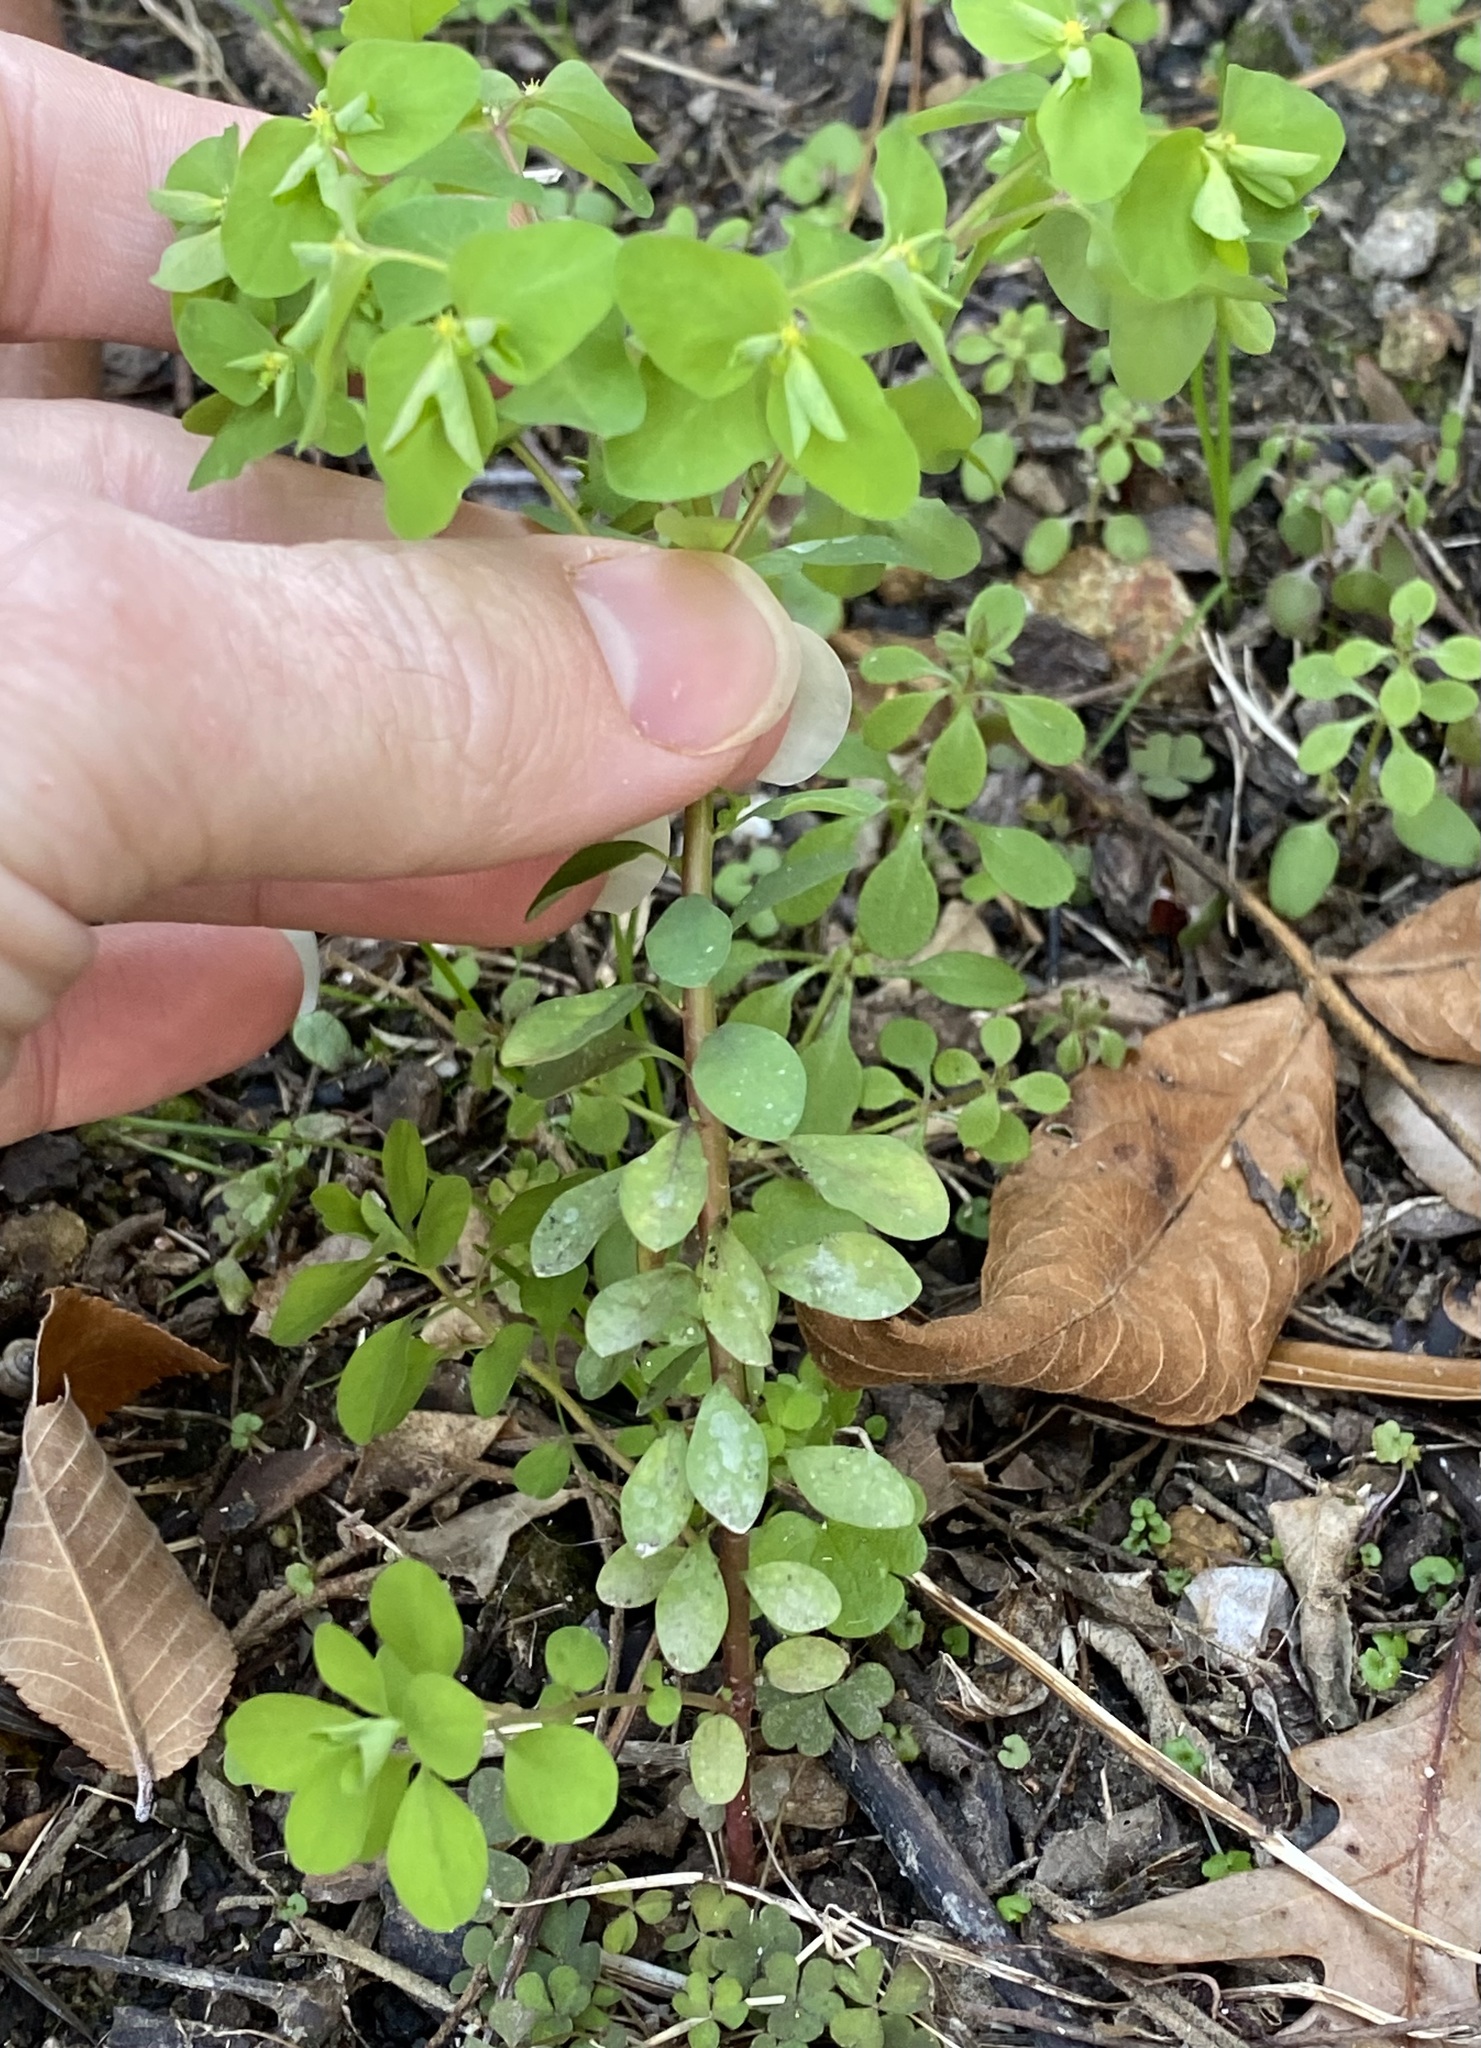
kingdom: Plantae
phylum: Tracheophyta
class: Magnoliopsida
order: Malpighiales
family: Euphorbiaceae
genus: Euphorbia
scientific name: Euphorbia peplus
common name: Petty spurge
